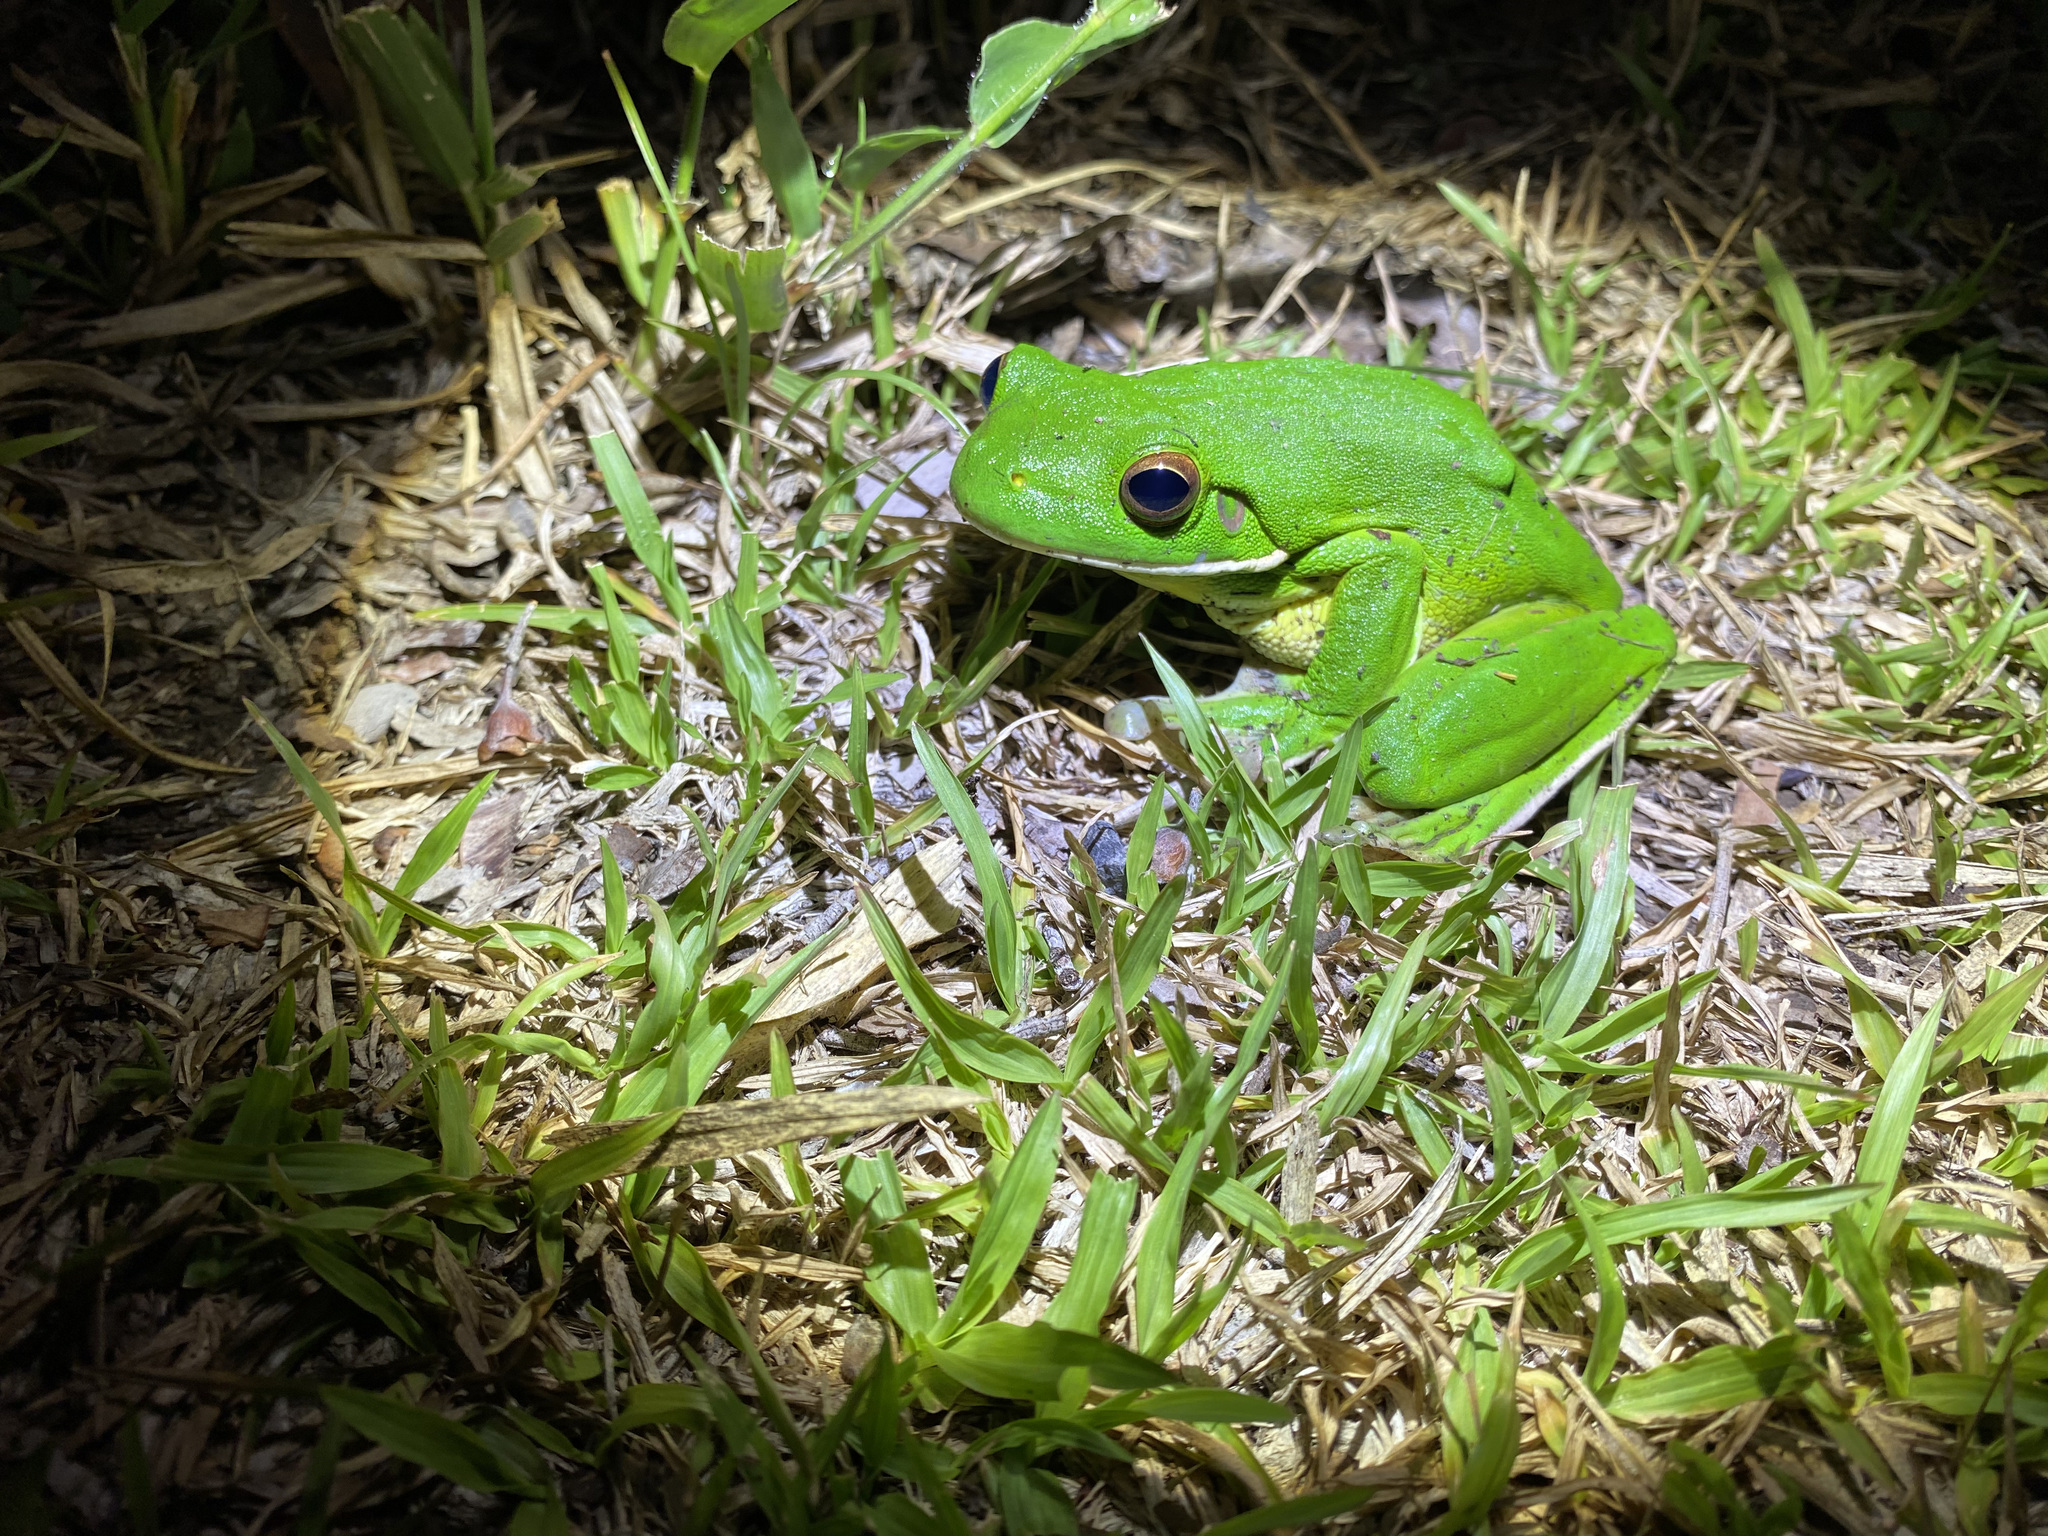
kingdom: Animalia
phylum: Chordata
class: Amphibia
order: Anura
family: Pelodryadidae
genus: Nyctimystes
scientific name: Nyctimystes infrafrenatus
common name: Australian giant treefrog
